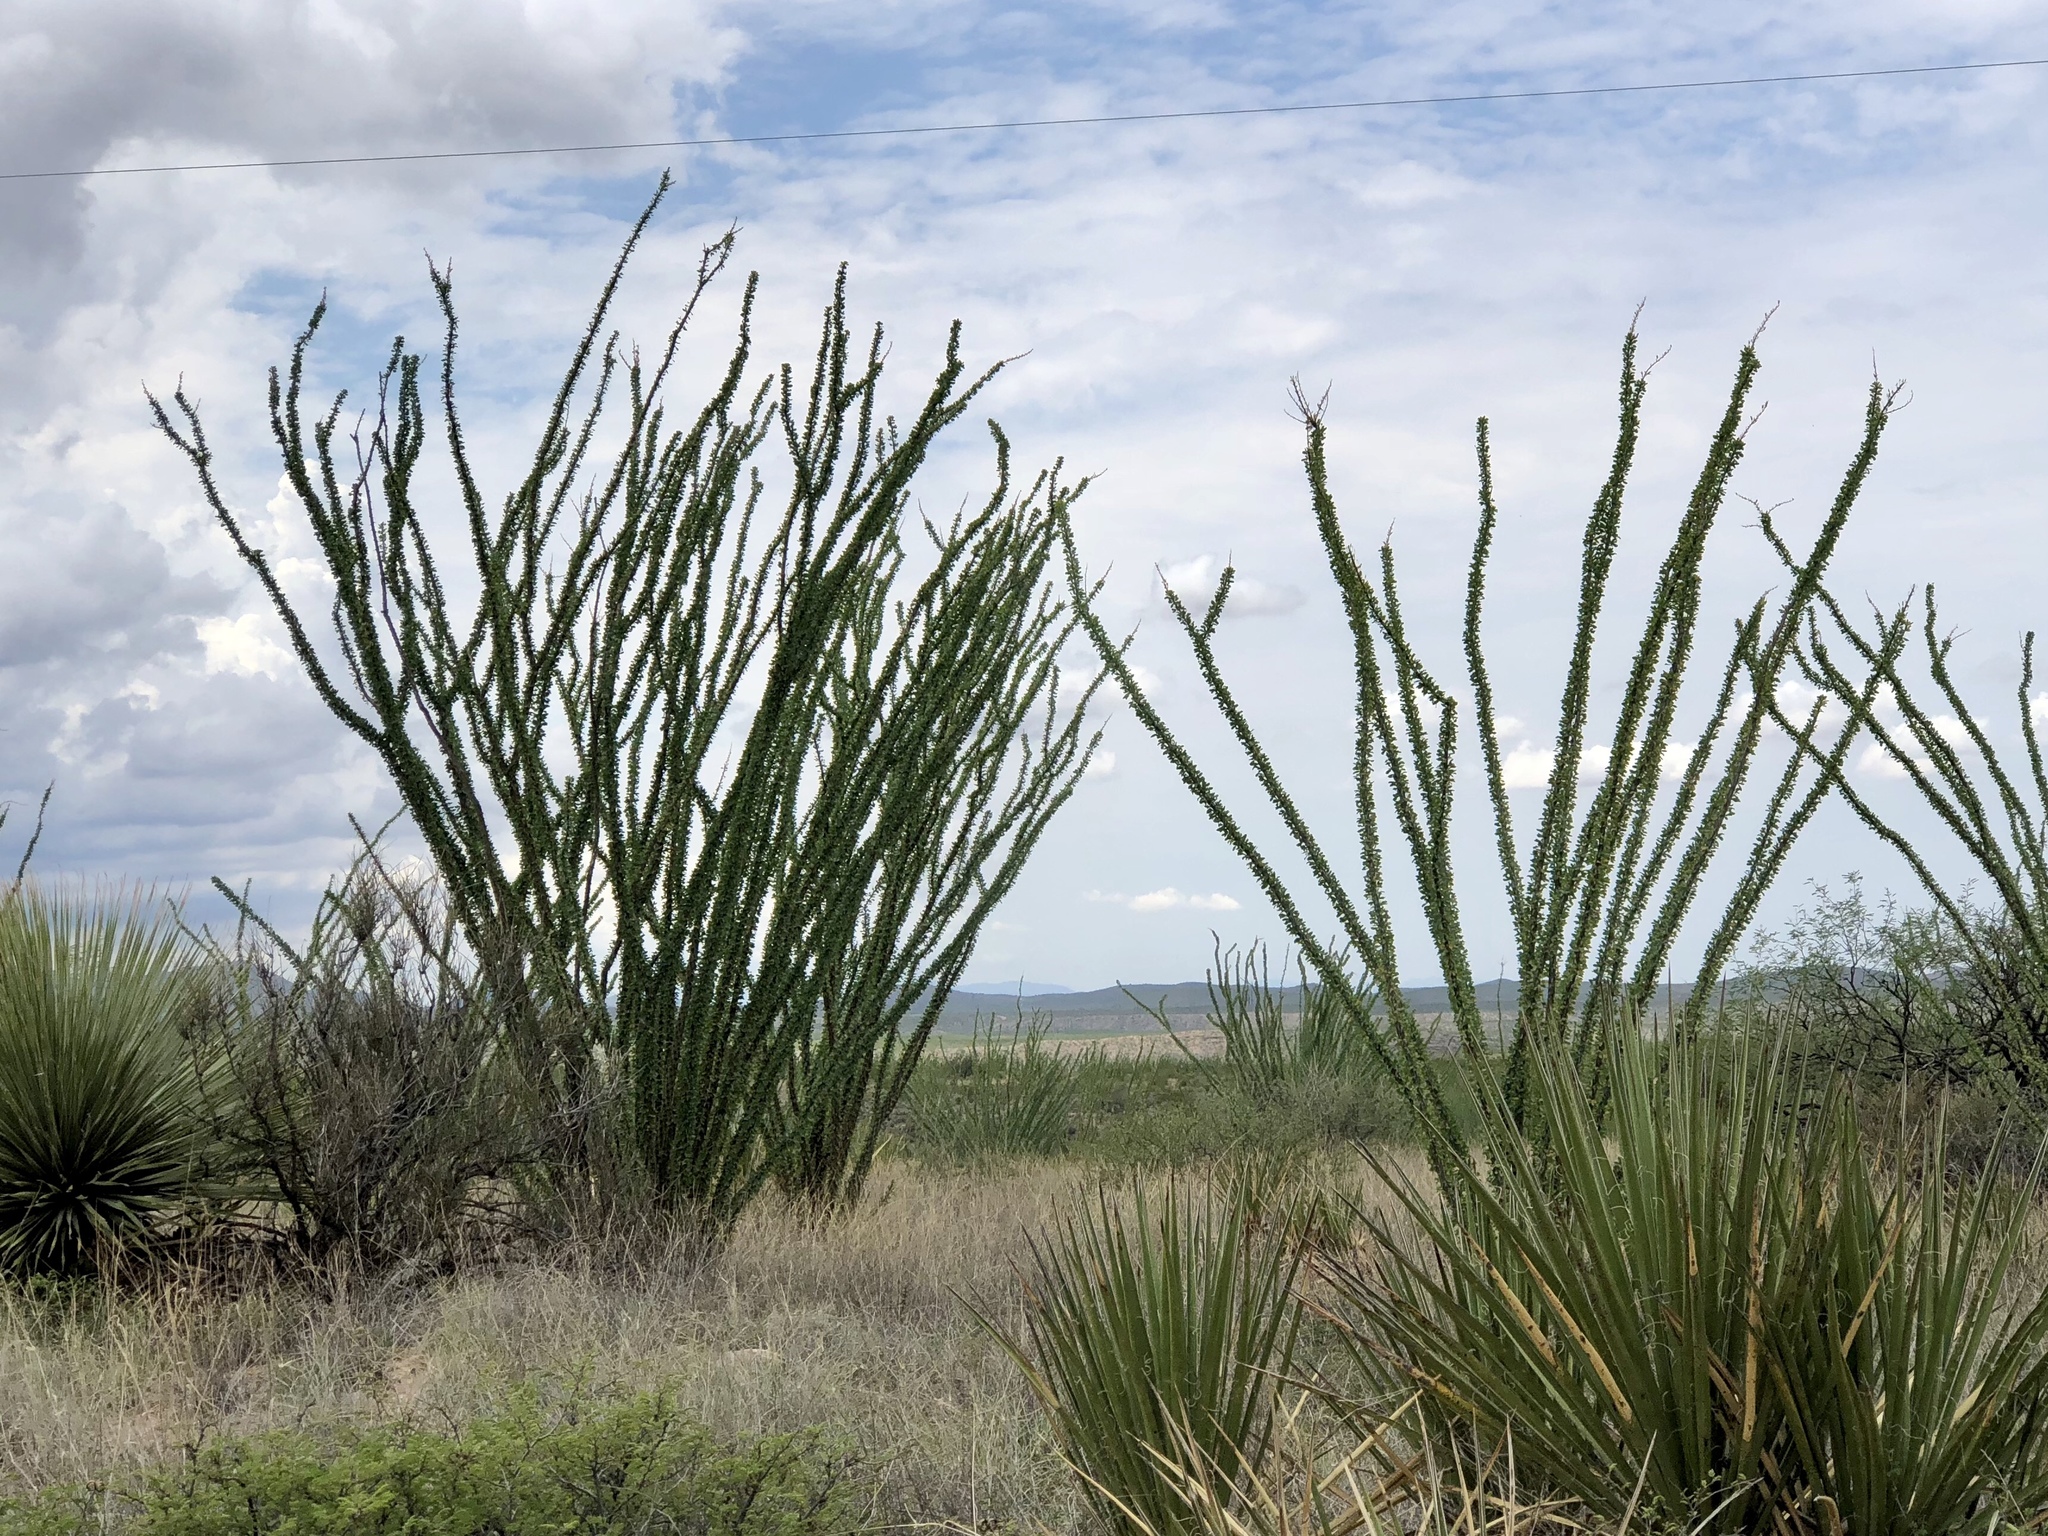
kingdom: Plantae
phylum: Tracheophyta
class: Magnoliopsida
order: Ericales
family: Fouquieriaceae
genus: Fouquieria
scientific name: Fouquieria splendens
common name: Vine-cactus
